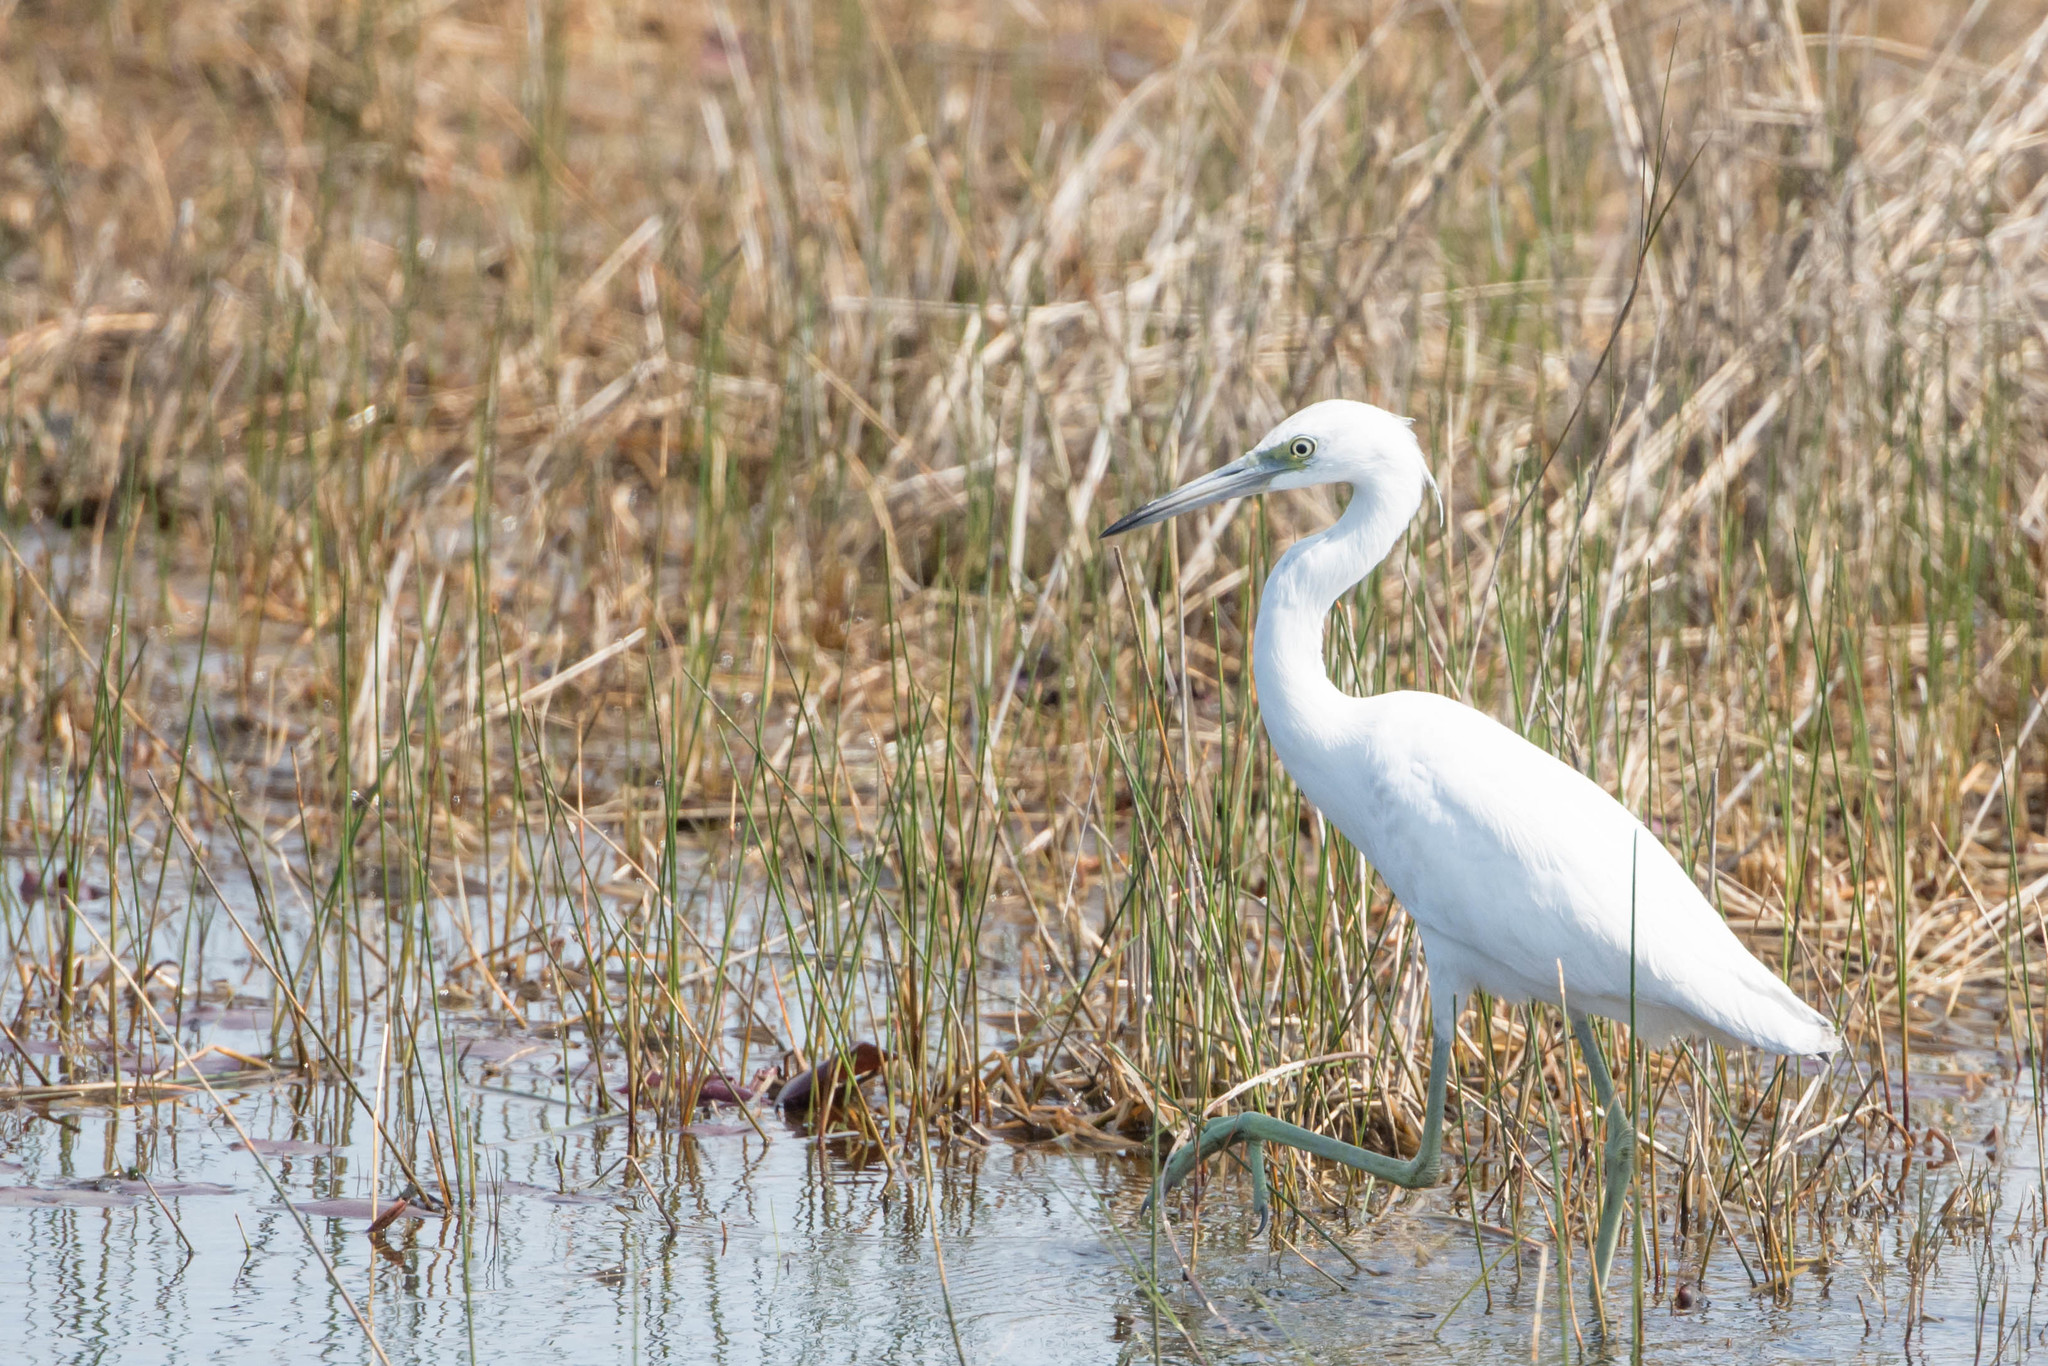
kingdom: Animalia
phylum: Chordata
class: Aves
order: Pelecaniformes
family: Ardeidae
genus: Egretta
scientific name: Egretta caerulea
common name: Little blue heron
